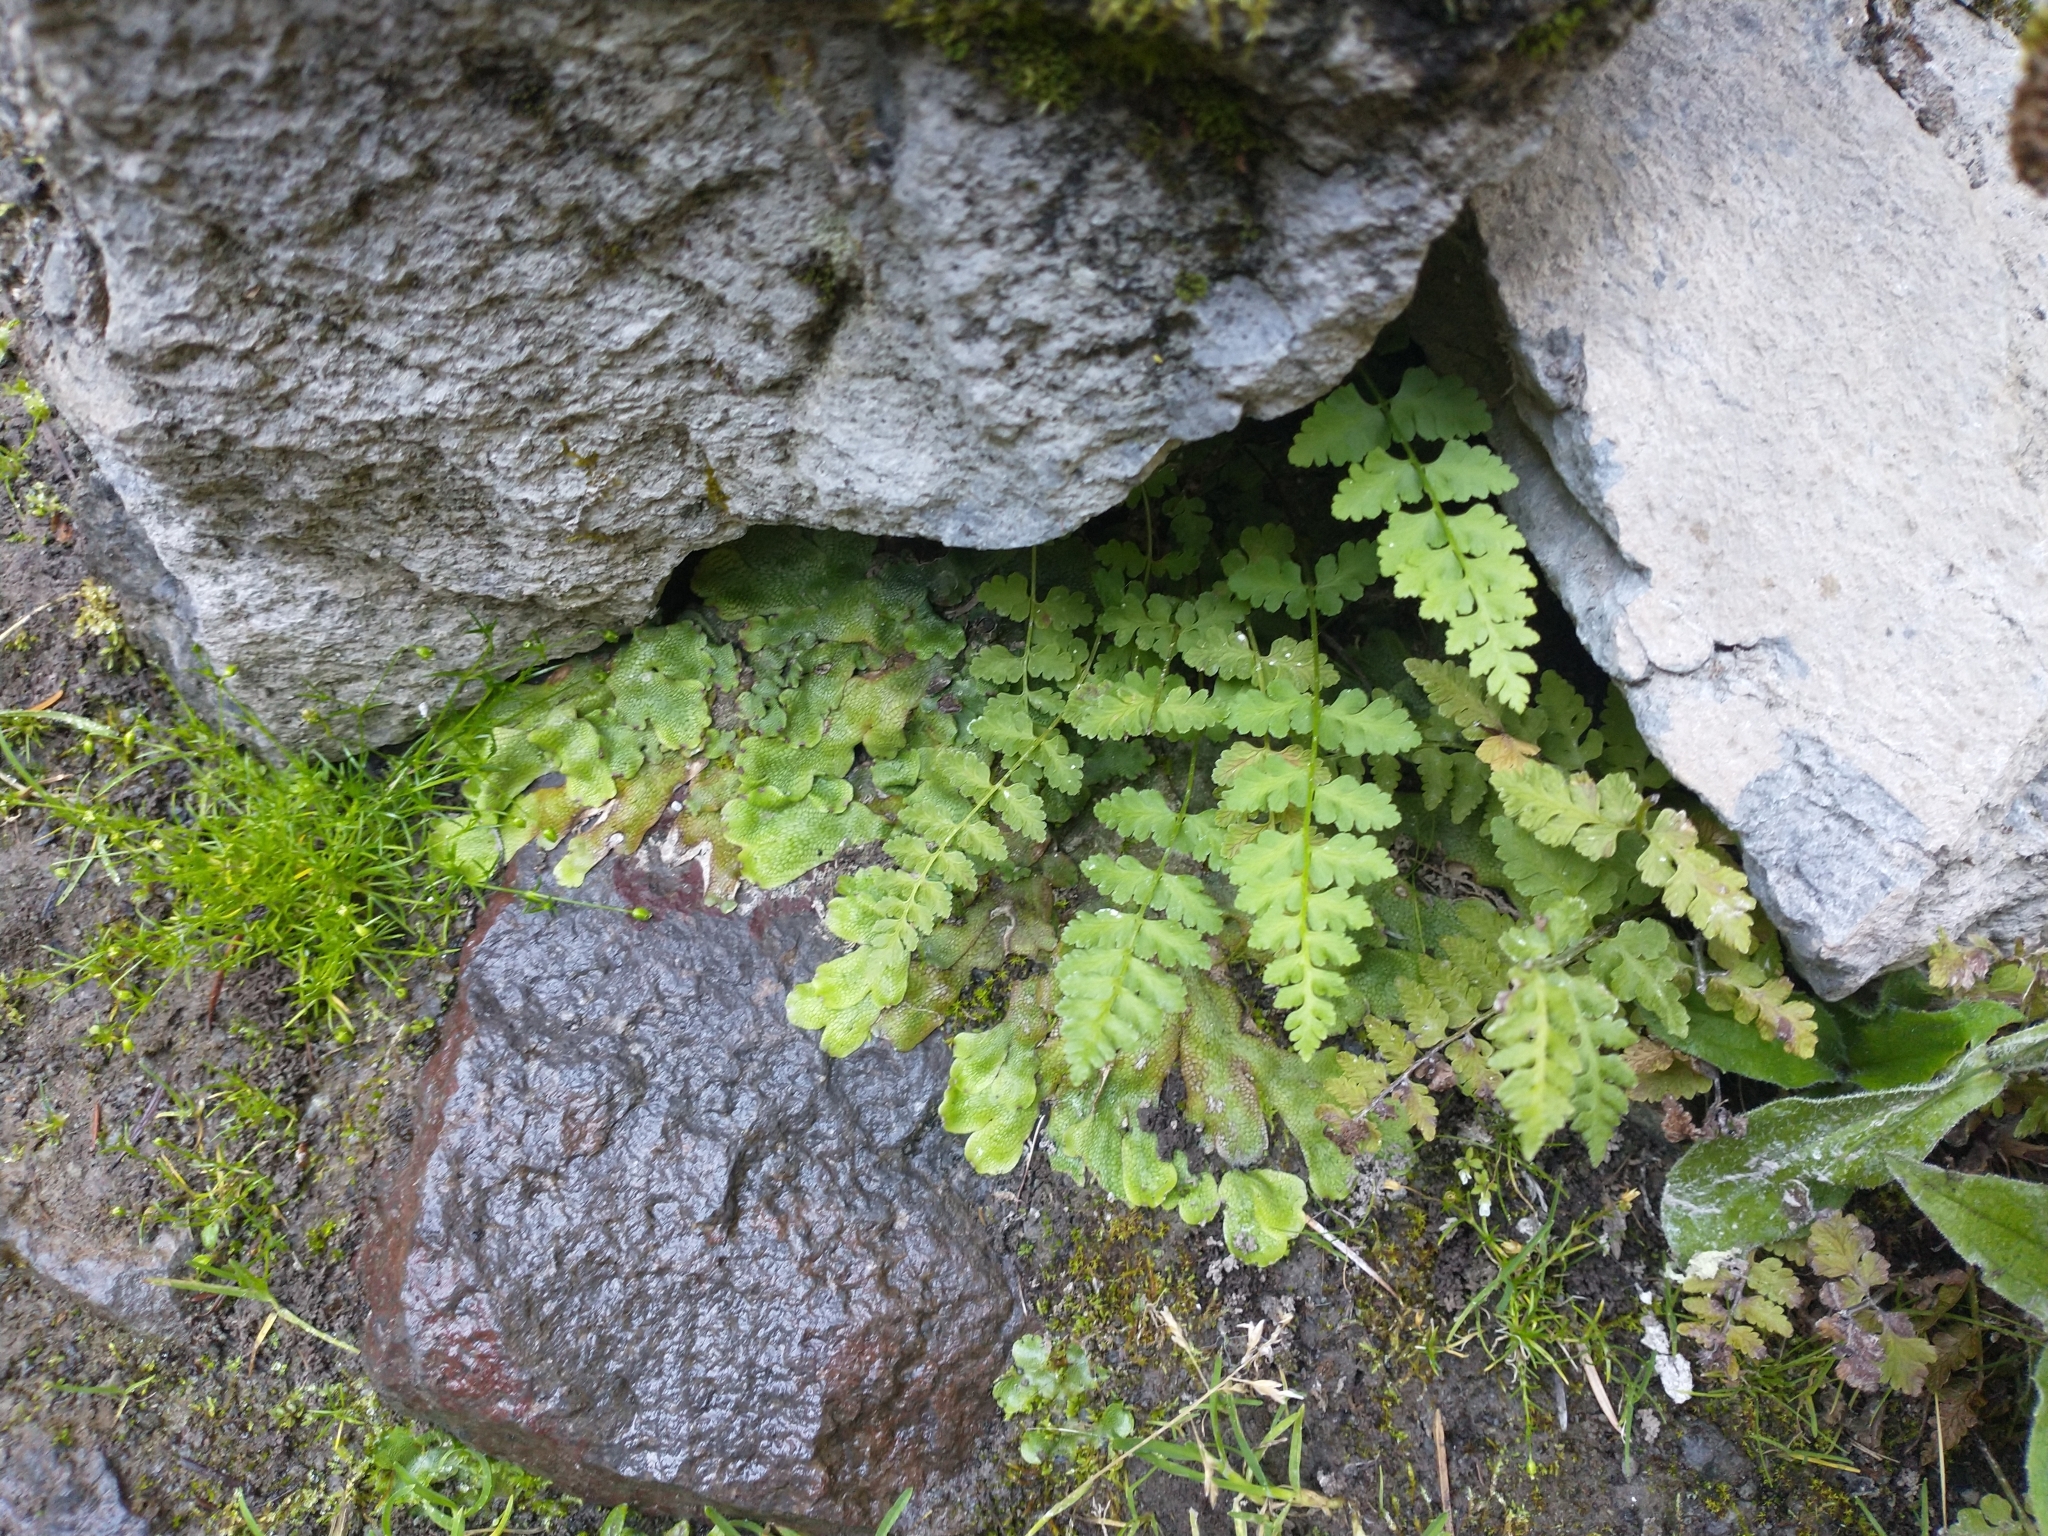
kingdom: Plantae
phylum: Tracheophyta
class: Polypodiopsida
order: Polypodiales
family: Cystopteridaceae
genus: Cystopteris
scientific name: Cystopteris fragilis
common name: Brittle bladder fern
